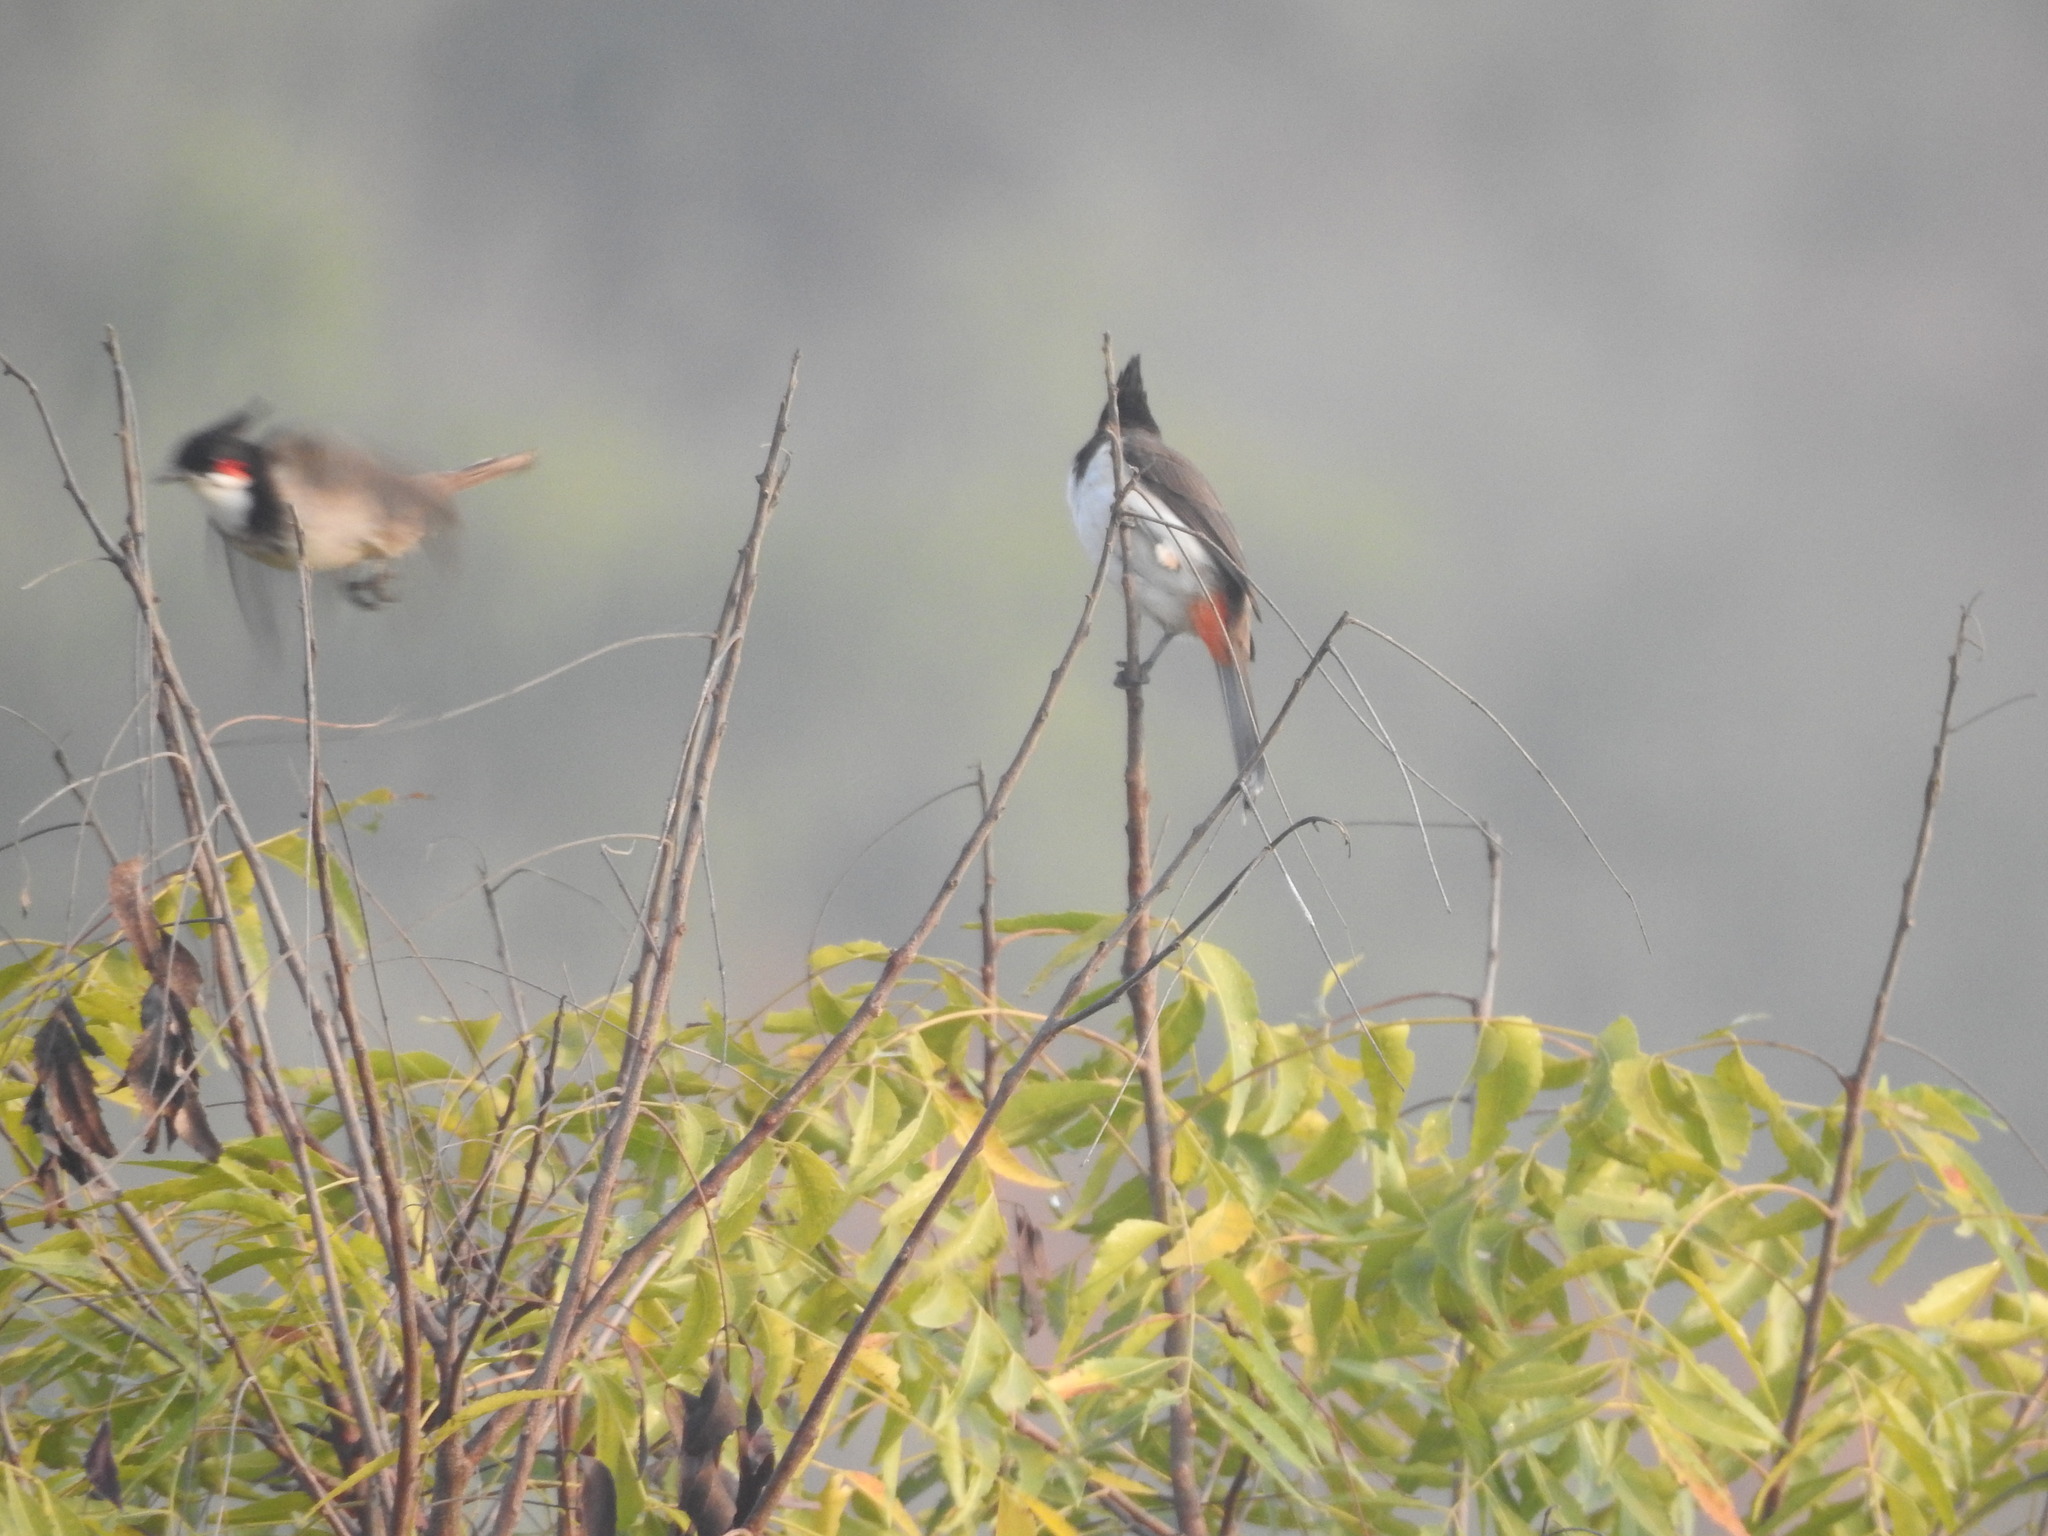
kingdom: Animalia
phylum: Chordata
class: Aves
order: Passeriformes
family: Pycnonotidae
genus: Pycnonotus
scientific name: Pycnonotus jocosus
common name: Red-whiskered bulbul
